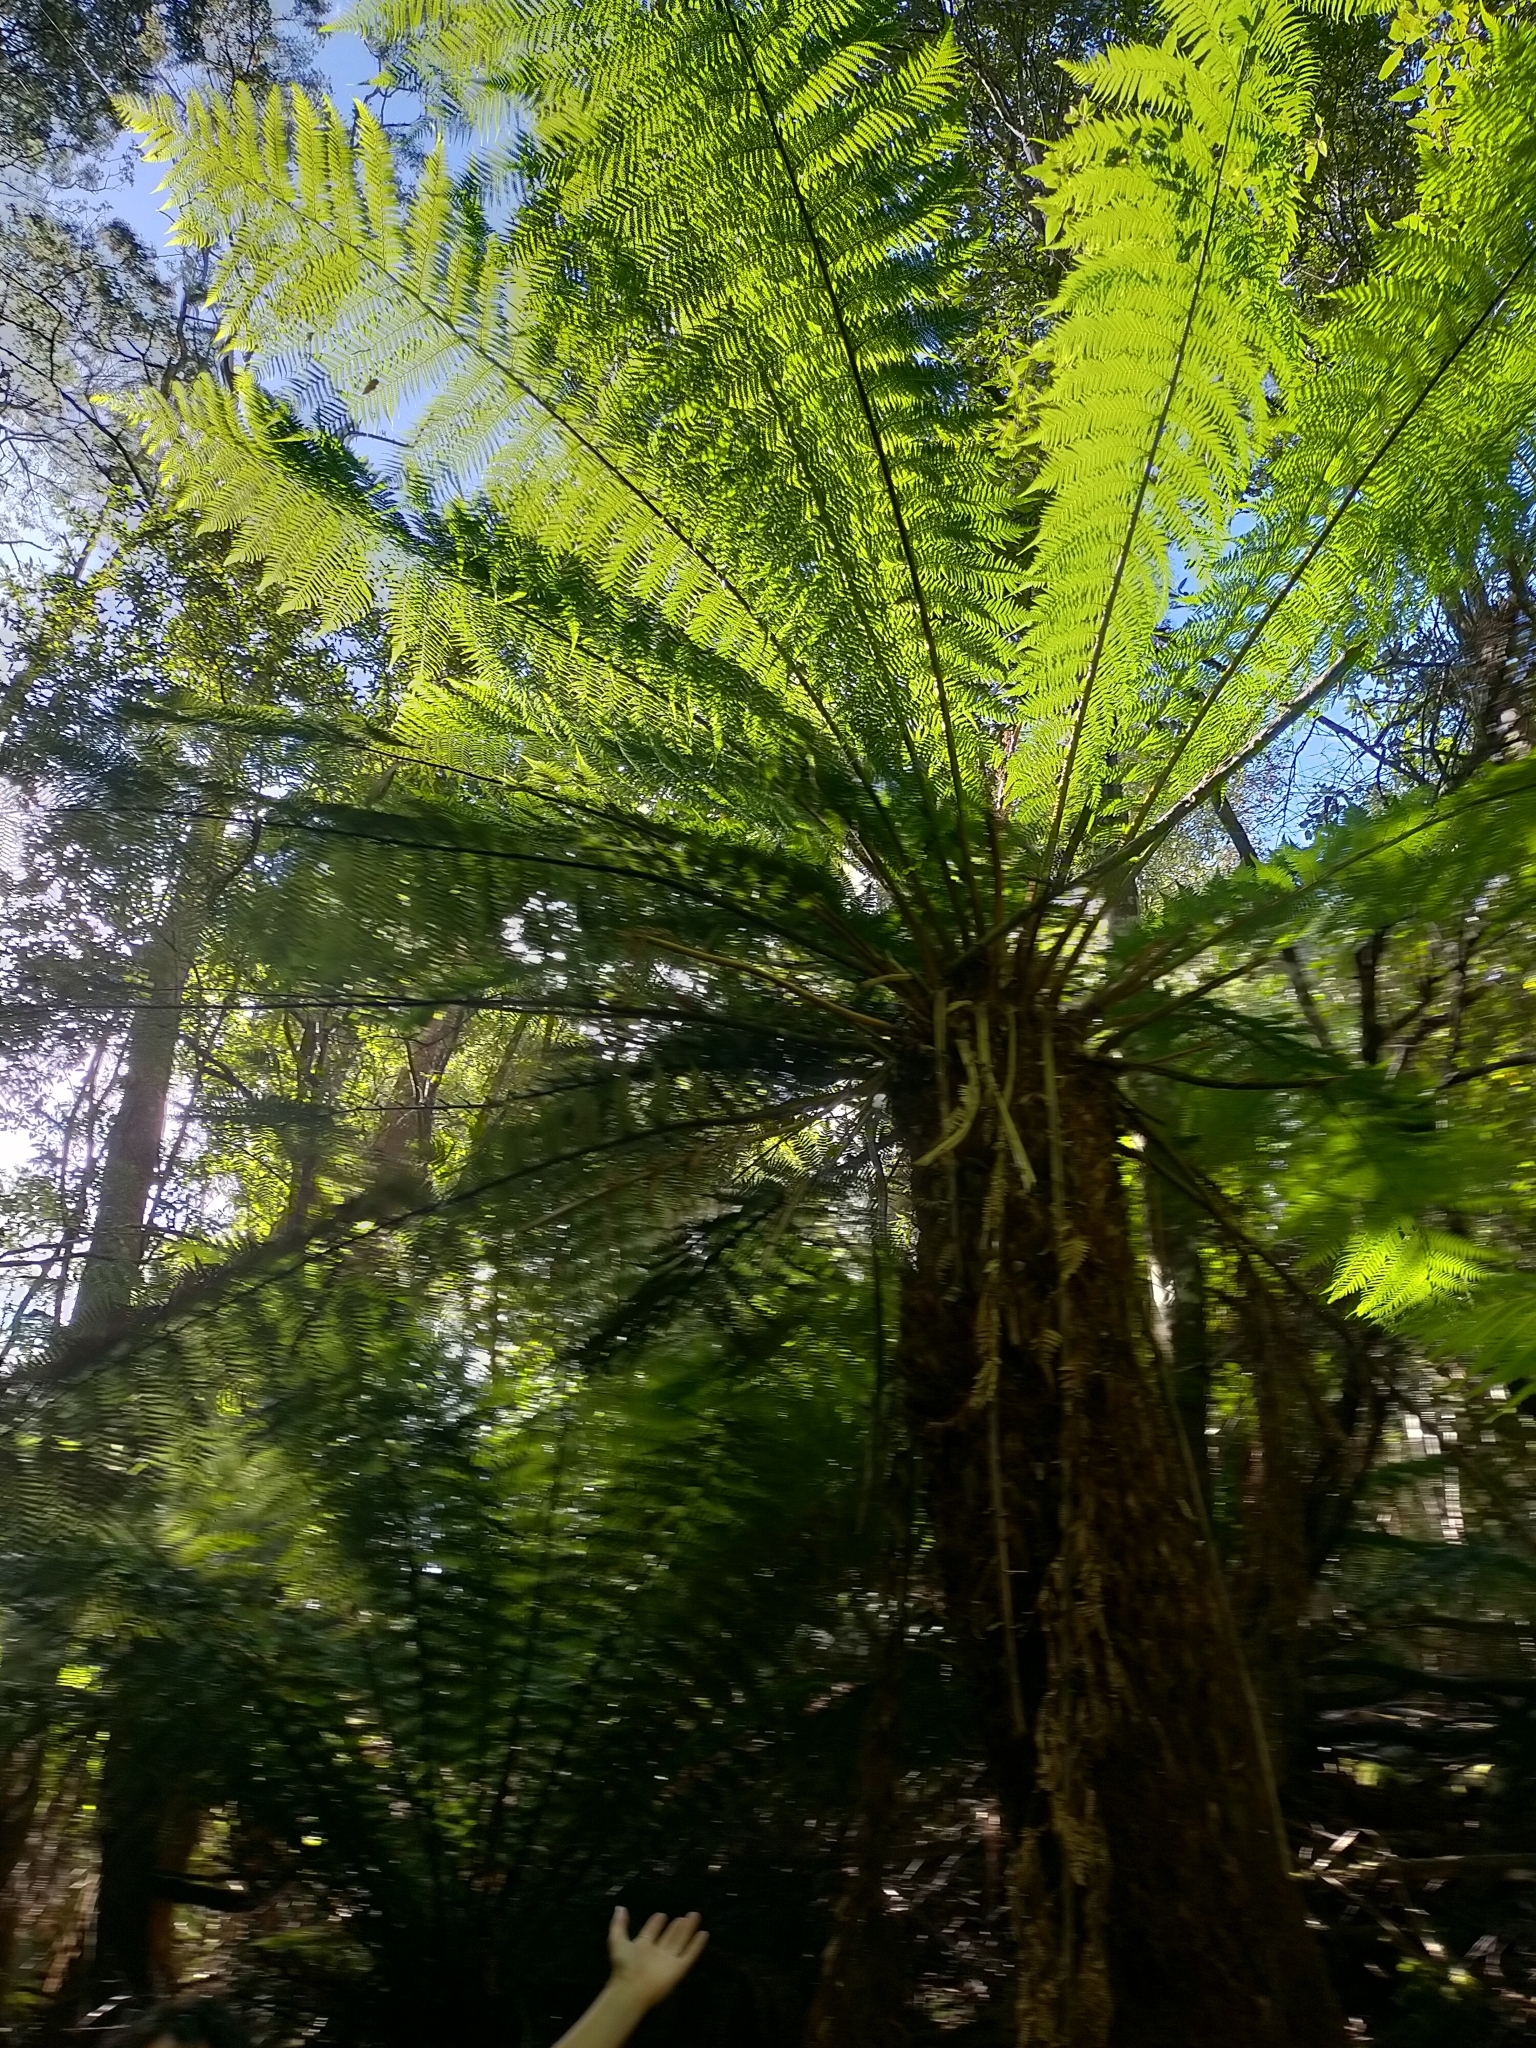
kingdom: Plantae
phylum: Tracheophyta
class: Polypodiopsida
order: Cyatheales
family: Dicksoniaceae
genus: Dicksonia
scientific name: Dicksonia antarctica
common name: Australian treefern
